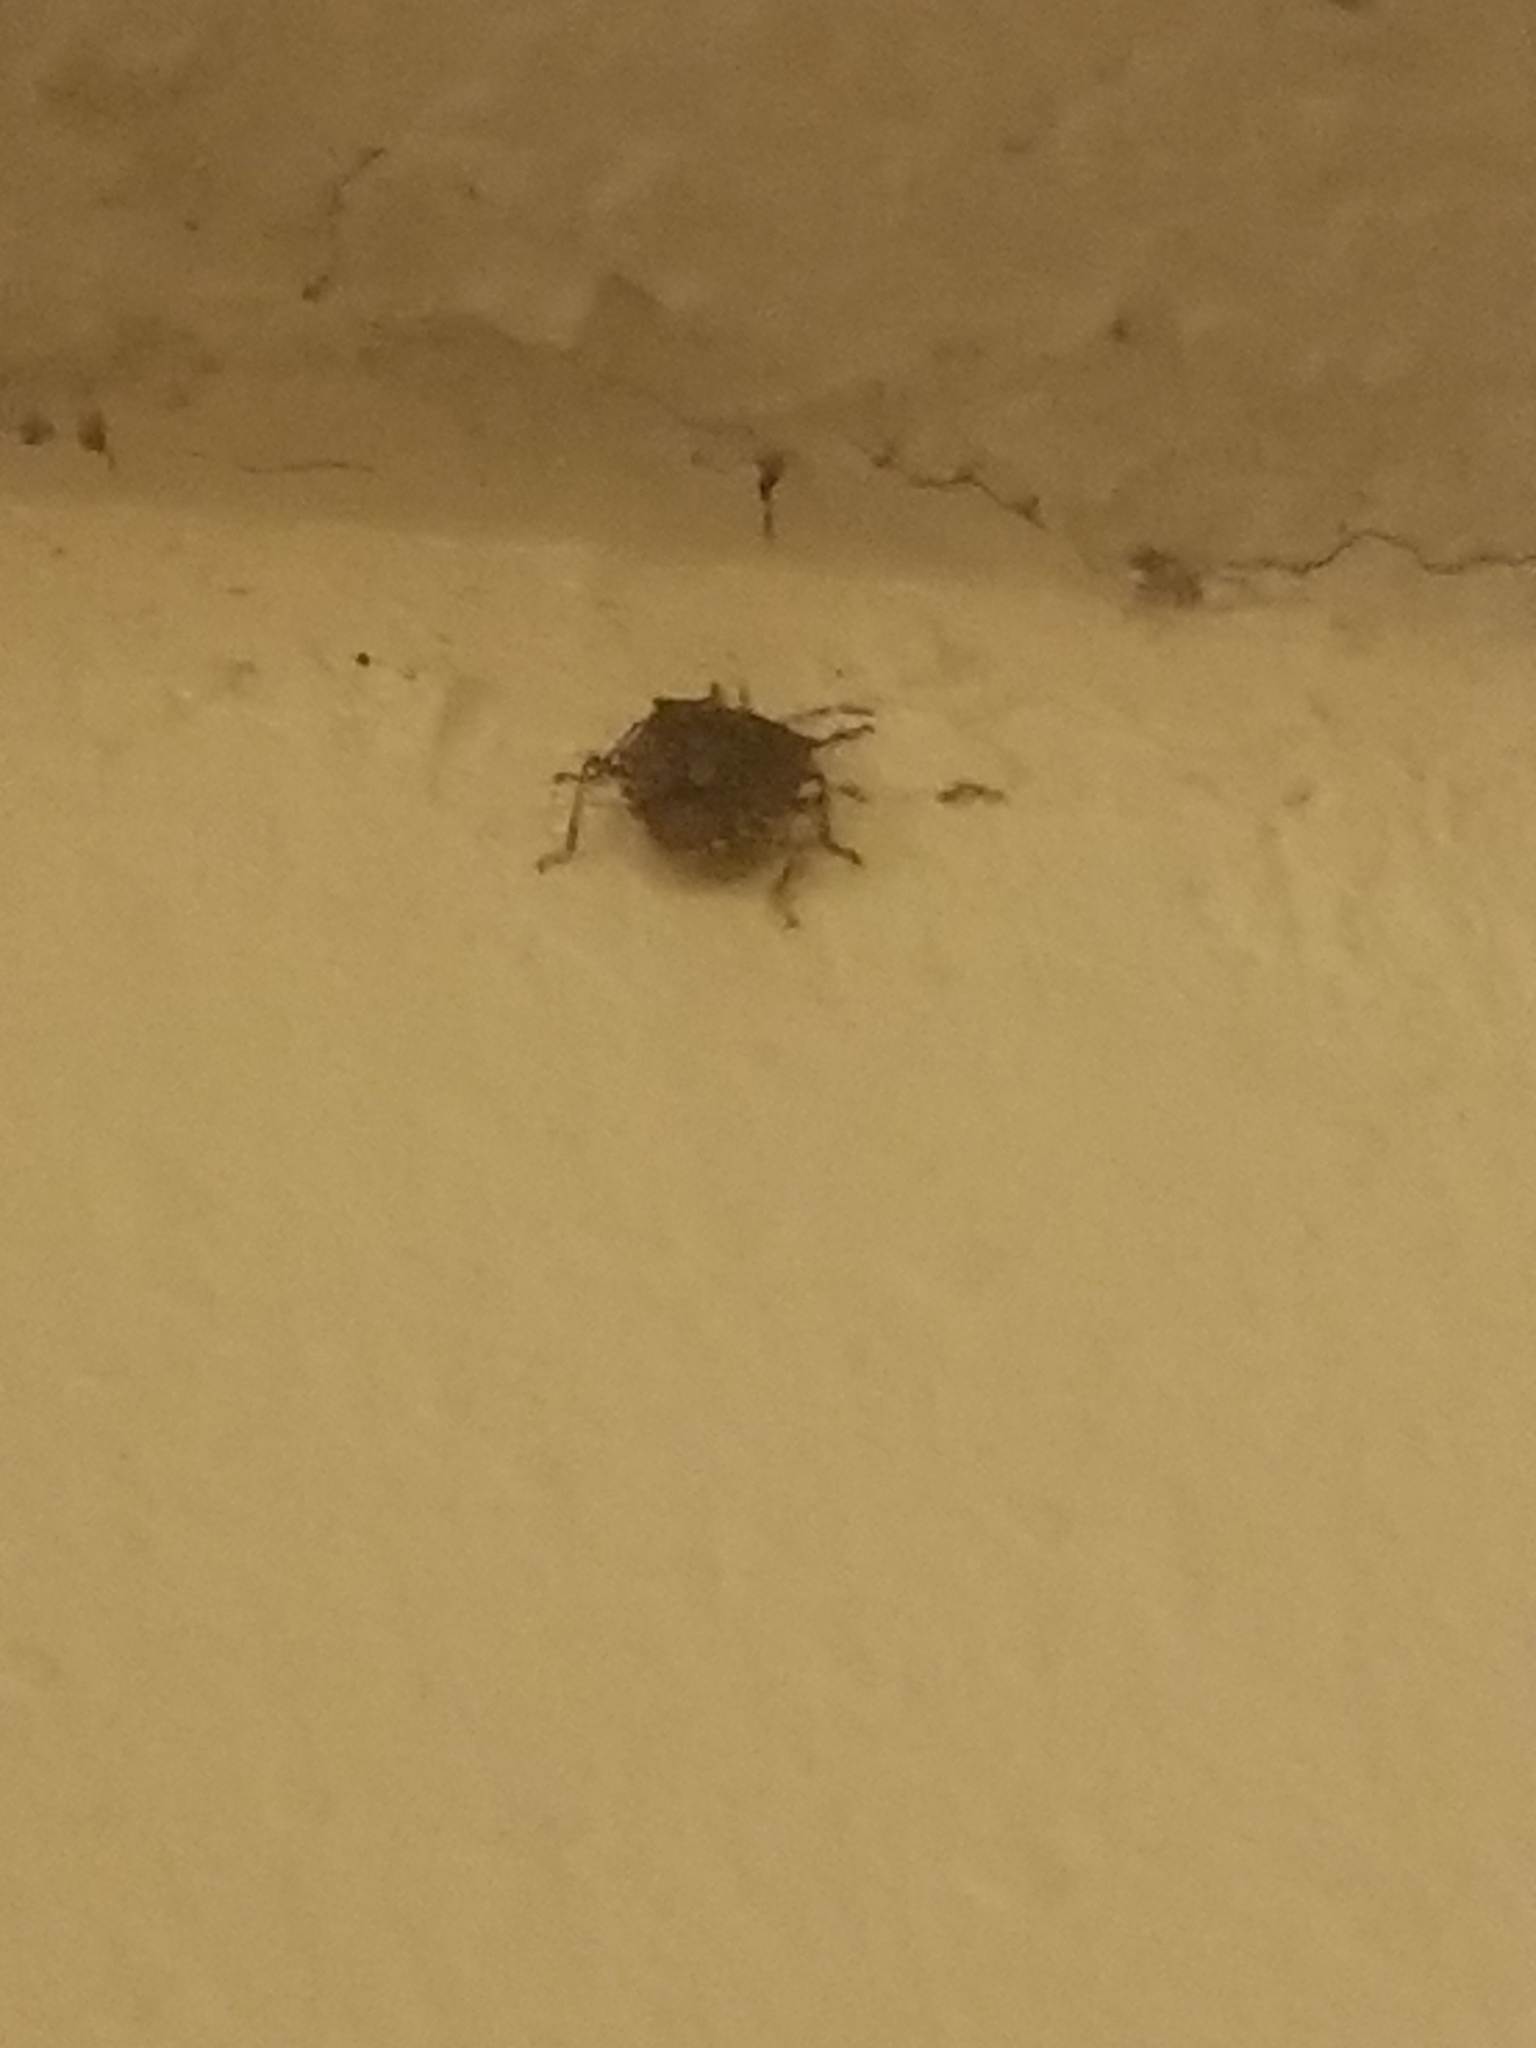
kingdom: Animalia
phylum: Arthropoda
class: Insecta
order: Hemiptera
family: Pentatomidae
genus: Halyomorpha
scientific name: Halyomorpha halys
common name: Brown marmorated stink bug
